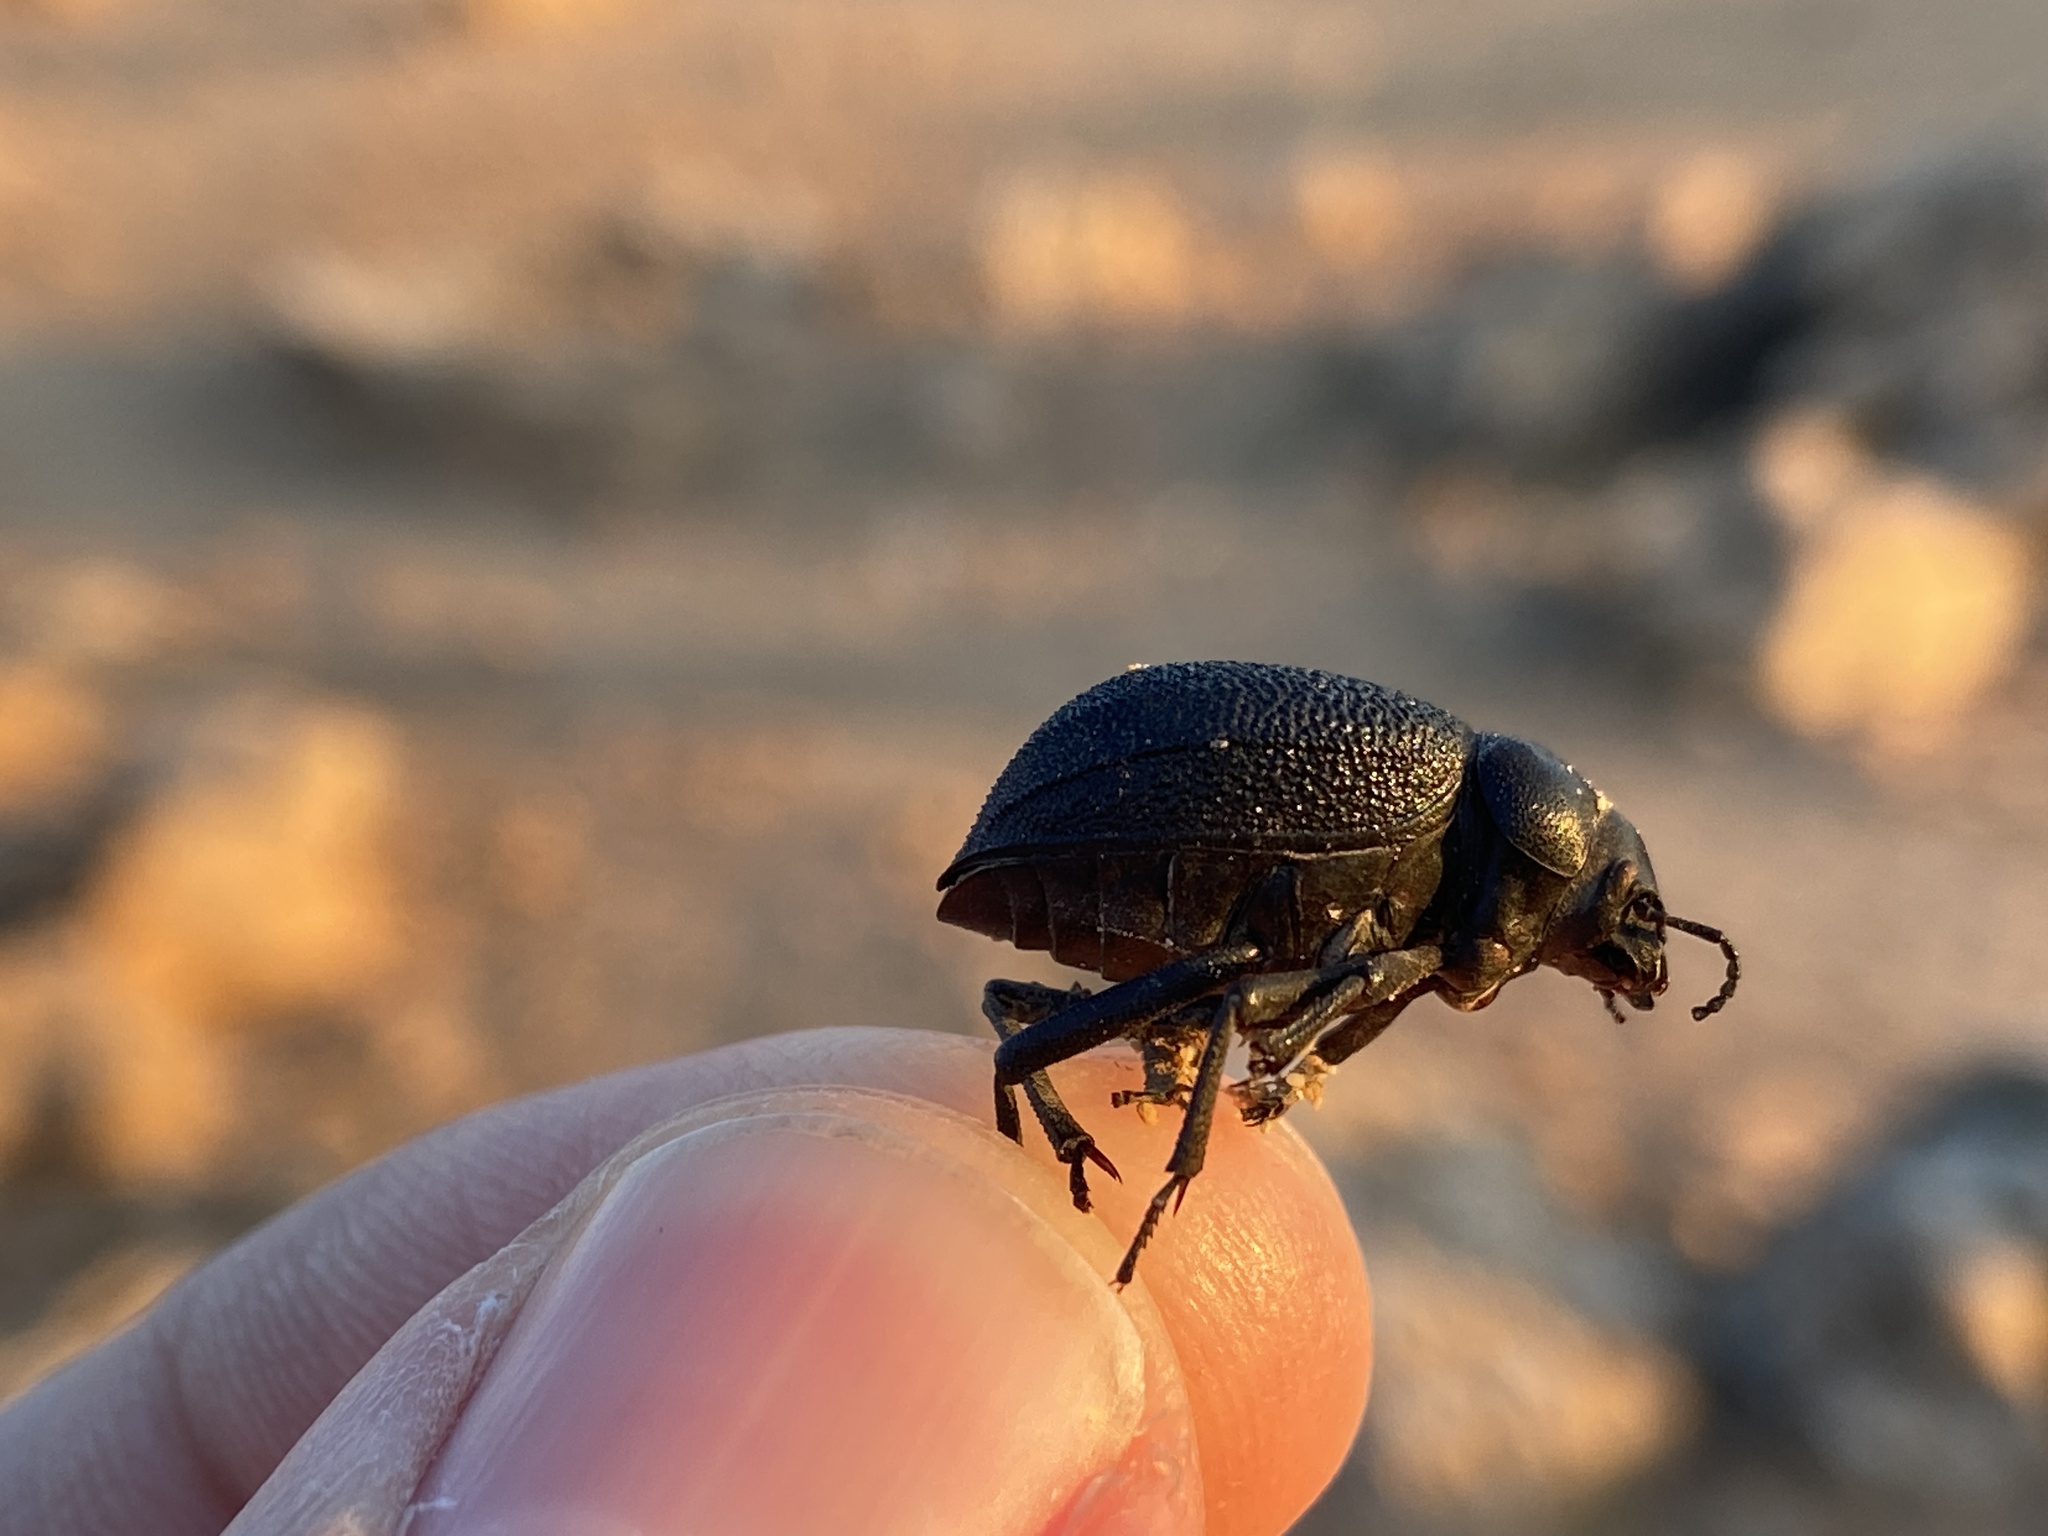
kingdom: Animalia
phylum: Arthropoda
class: Insecta
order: Coleoptera
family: Tenebrionidae
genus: Pimelia
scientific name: Pimelia cribra
